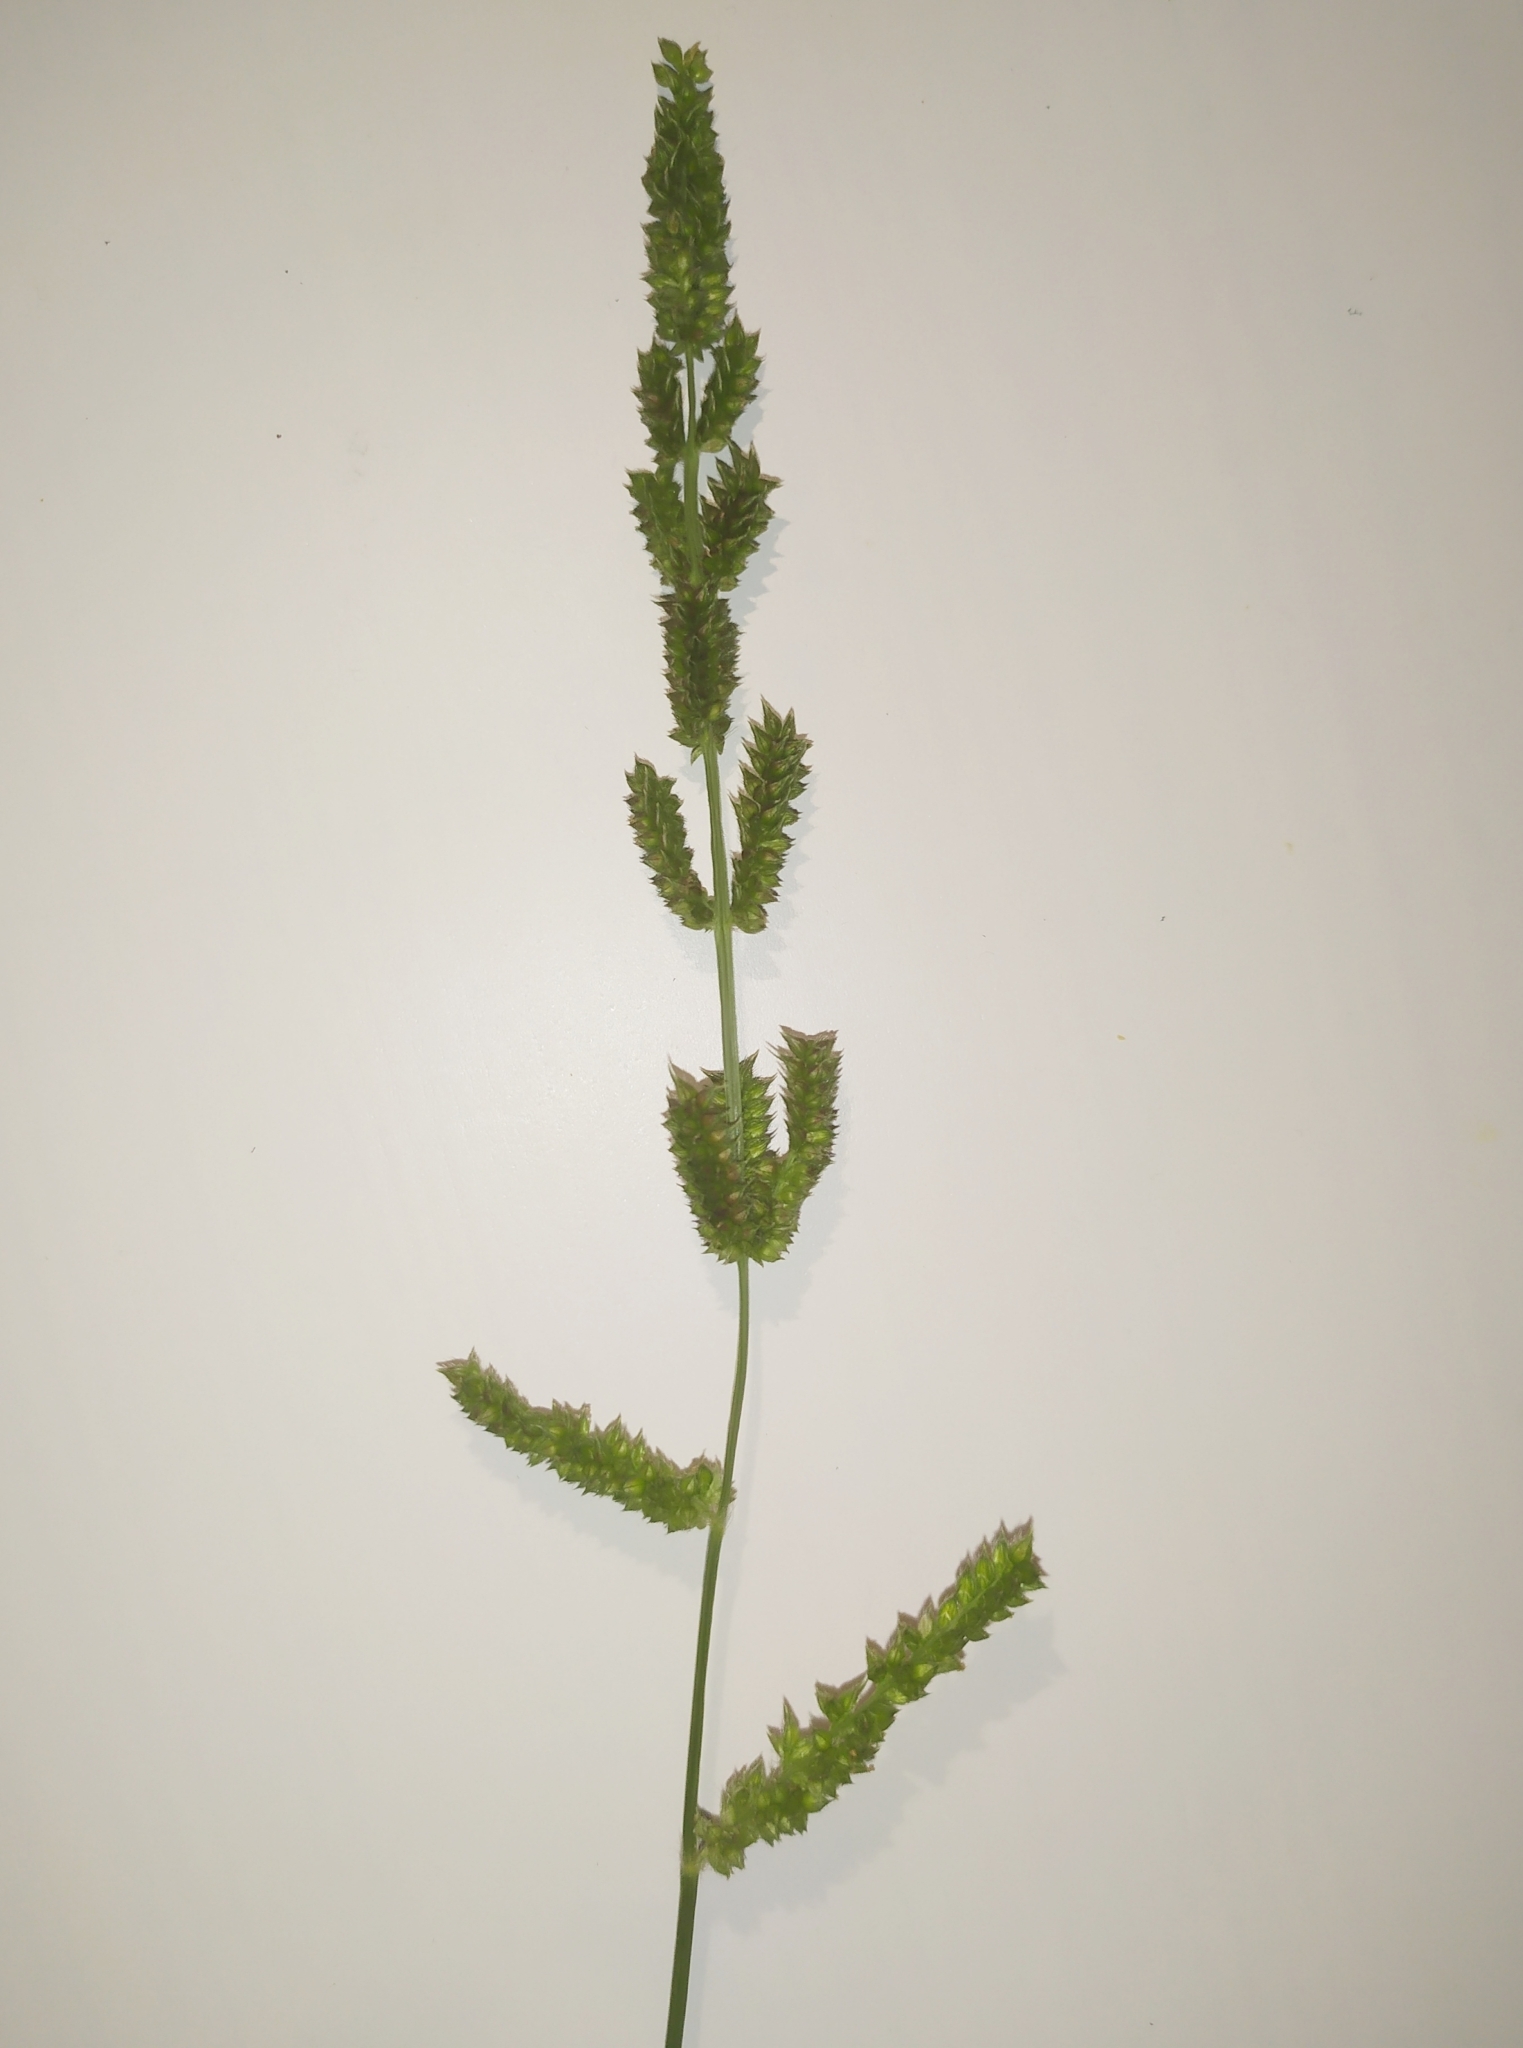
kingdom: Plantae
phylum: Tracheophyta
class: Liliopsida
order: Poales
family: Poaceae
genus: Echinochloa
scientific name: Echinochloa crus-galli
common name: Cockspur
